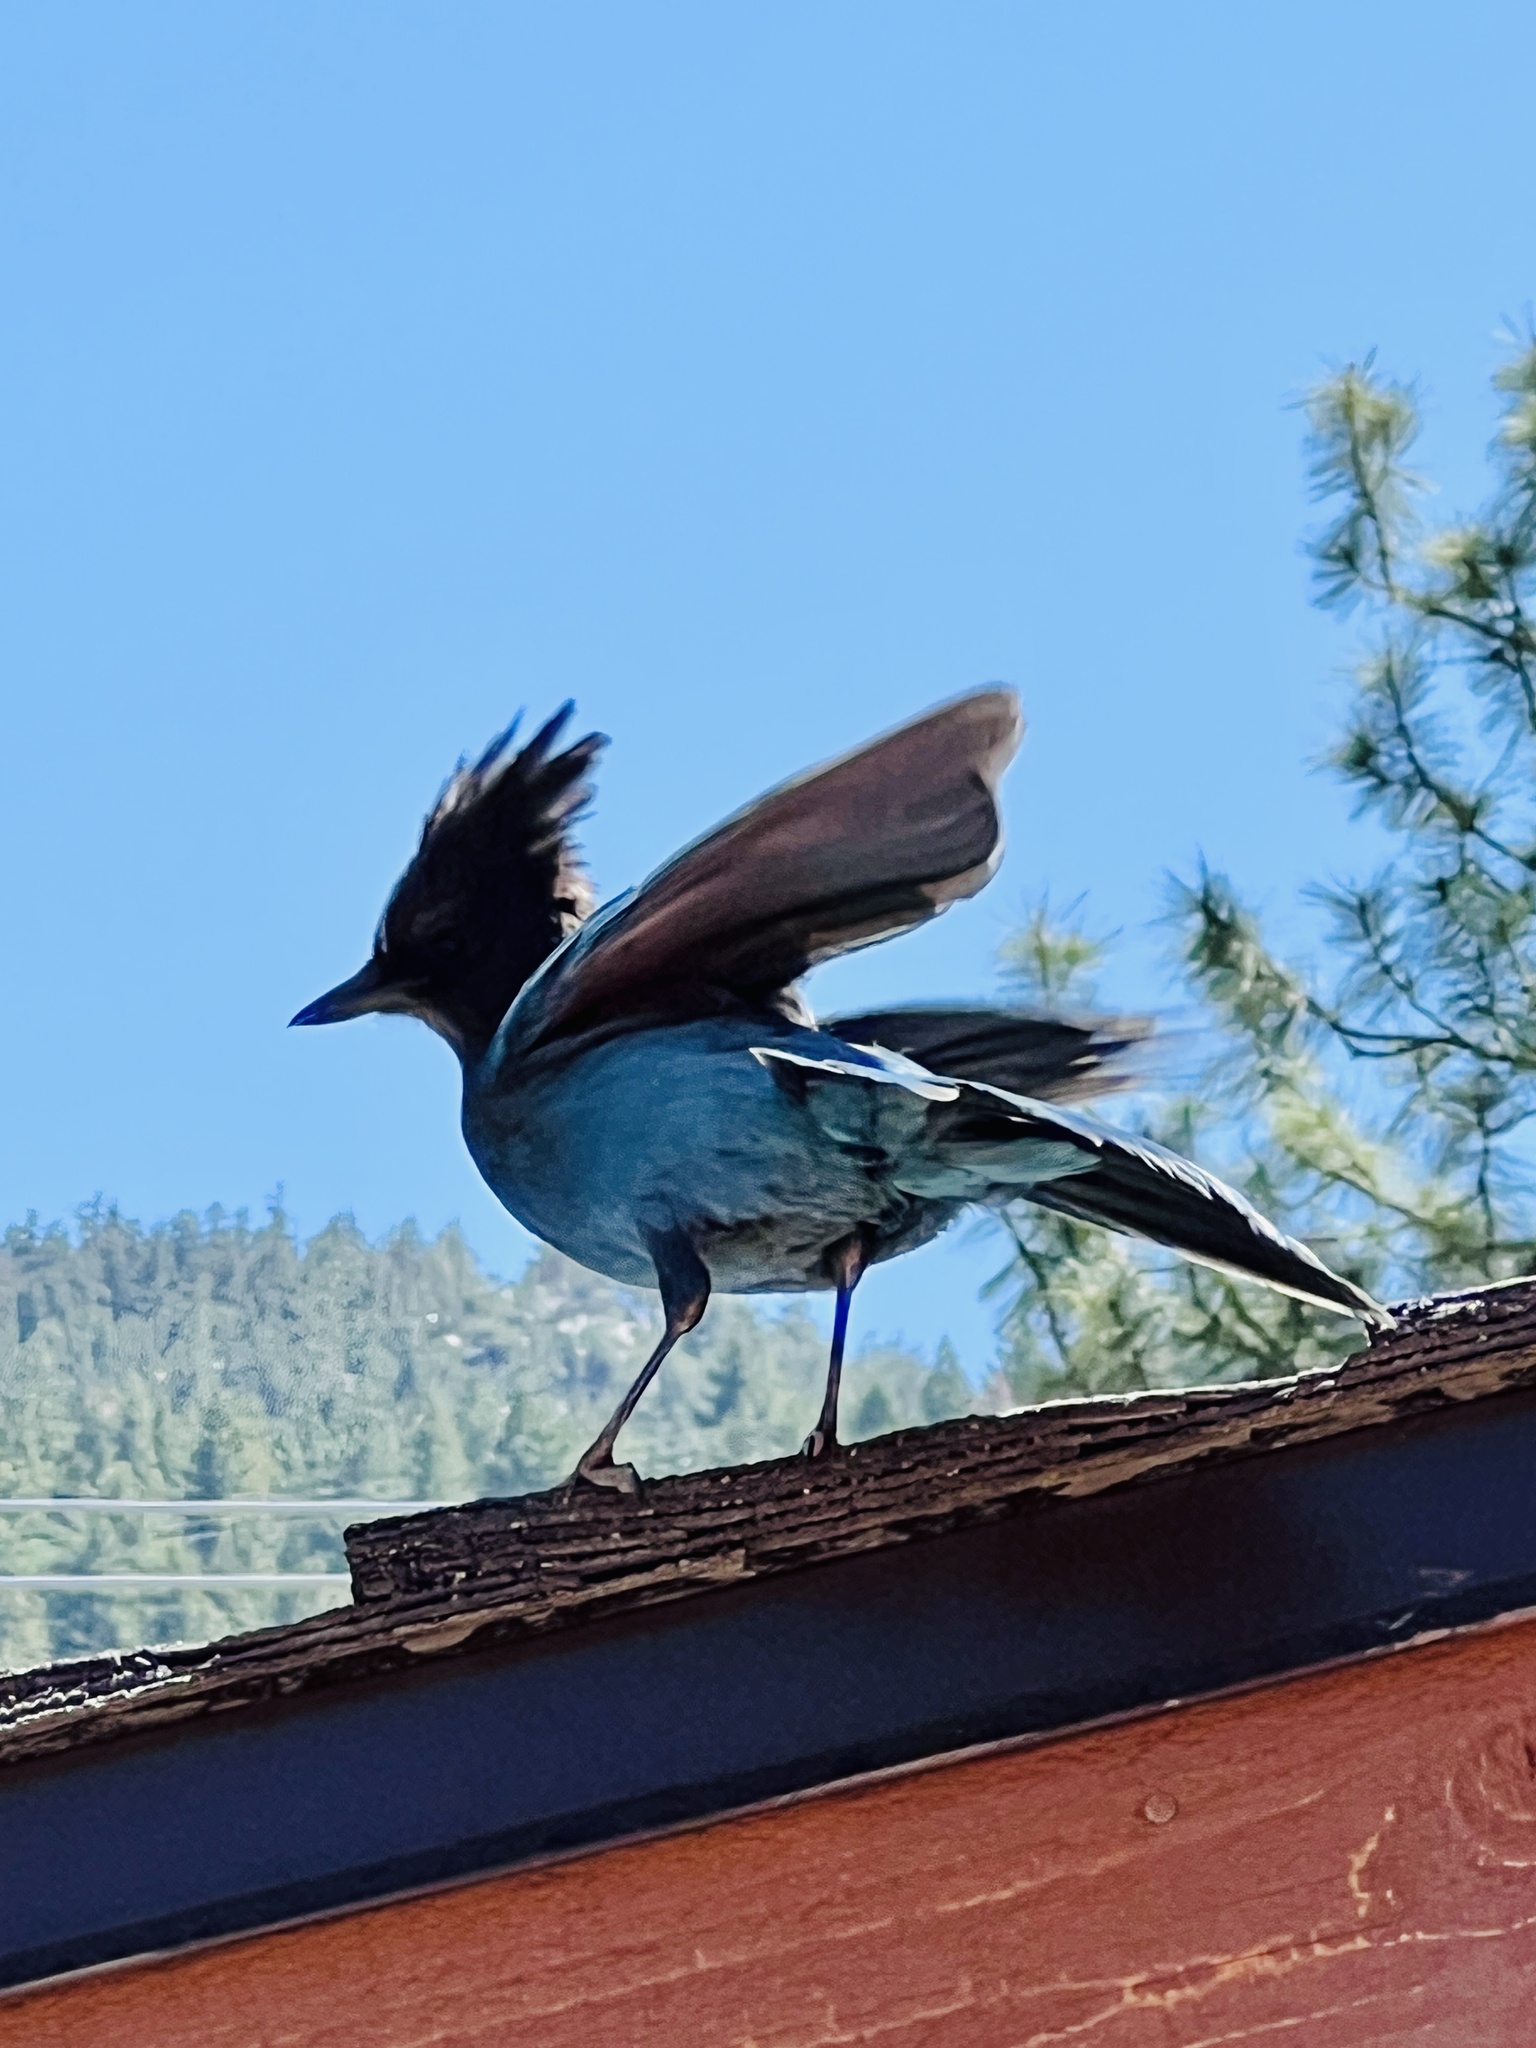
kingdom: Animalia
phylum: Chordata
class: Aves
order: Passeriformes
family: Corvidae
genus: Cyanocitta
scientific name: Cyanocitta stelleri
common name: Steller's jay
